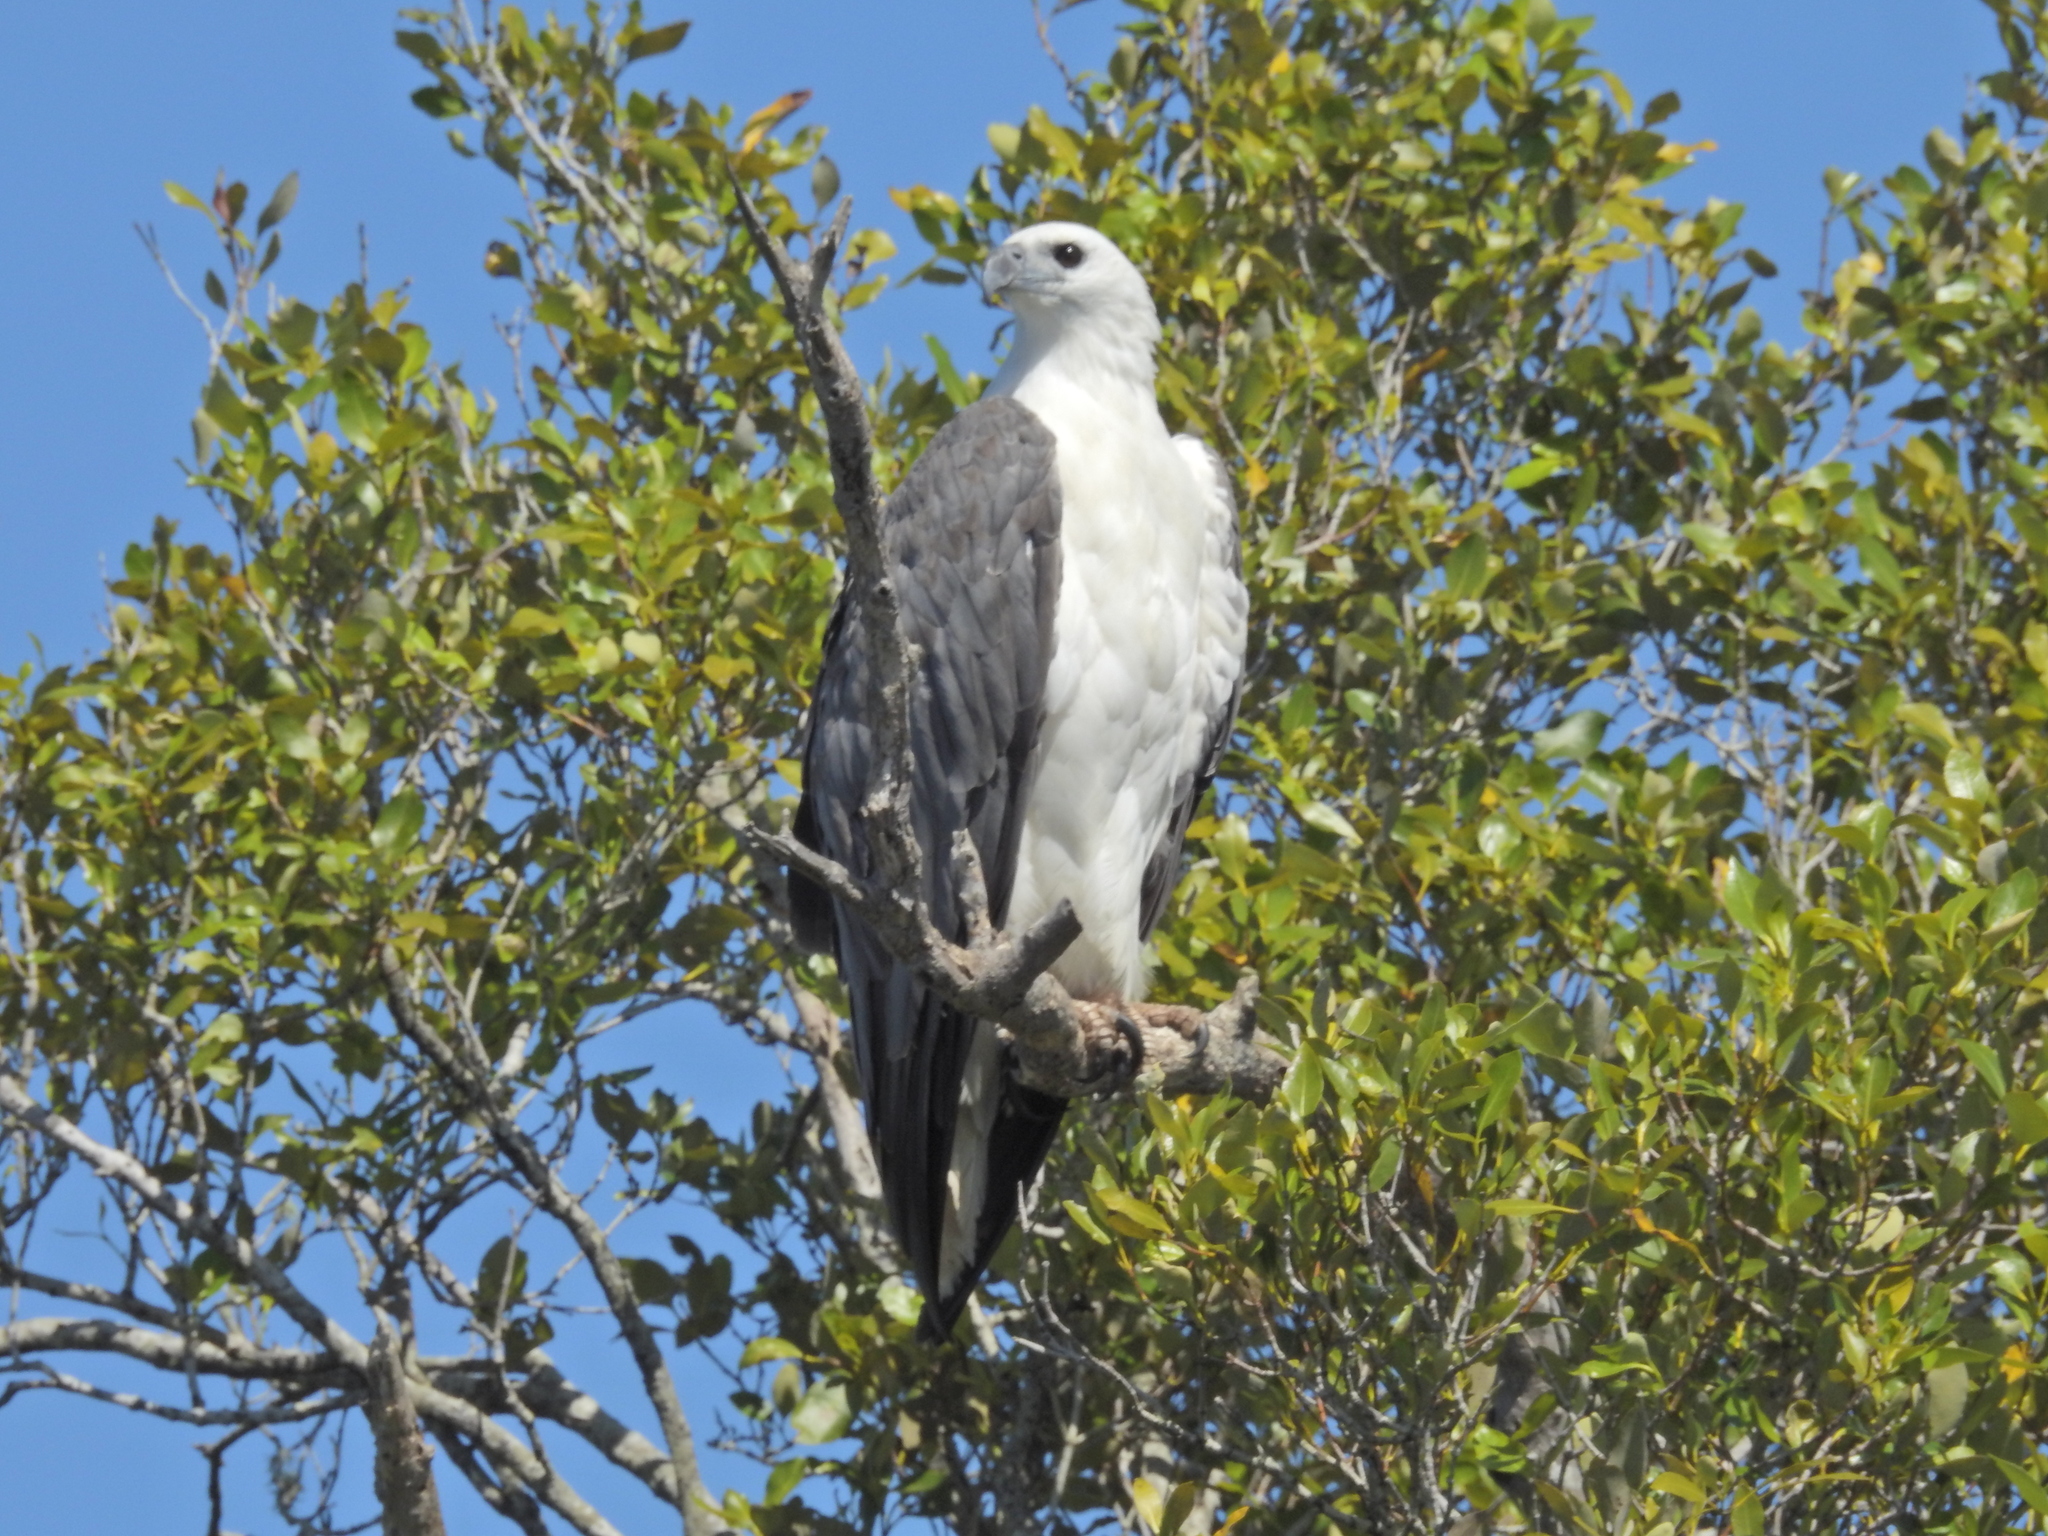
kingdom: Animalia
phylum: Chordata
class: Aves
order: Accipitriformes
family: Accipitridae
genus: Haliaeetus
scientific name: Haliaeetus leucogaster
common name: White-bellied sea eagle
